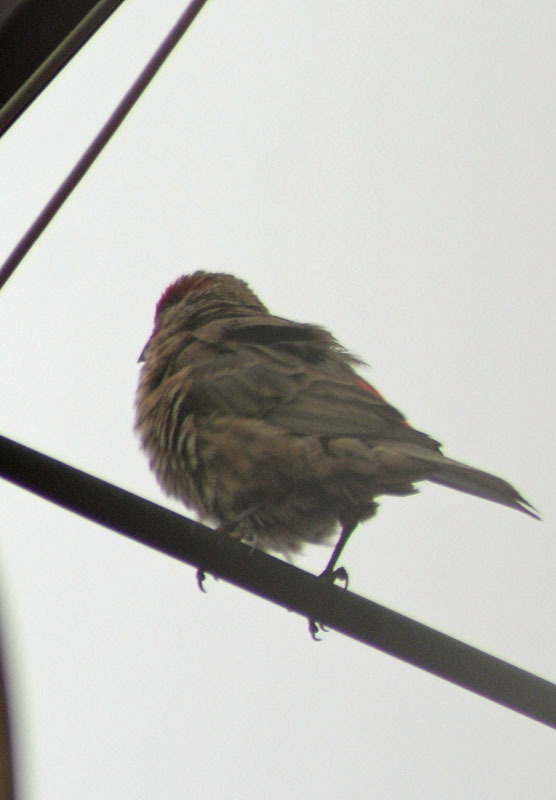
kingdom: Animalia
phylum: Chordata
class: Aves
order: Passeriformes
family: Fringillidae
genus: Haemorhous
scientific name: Haemorhous mexicanus
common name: House finch
